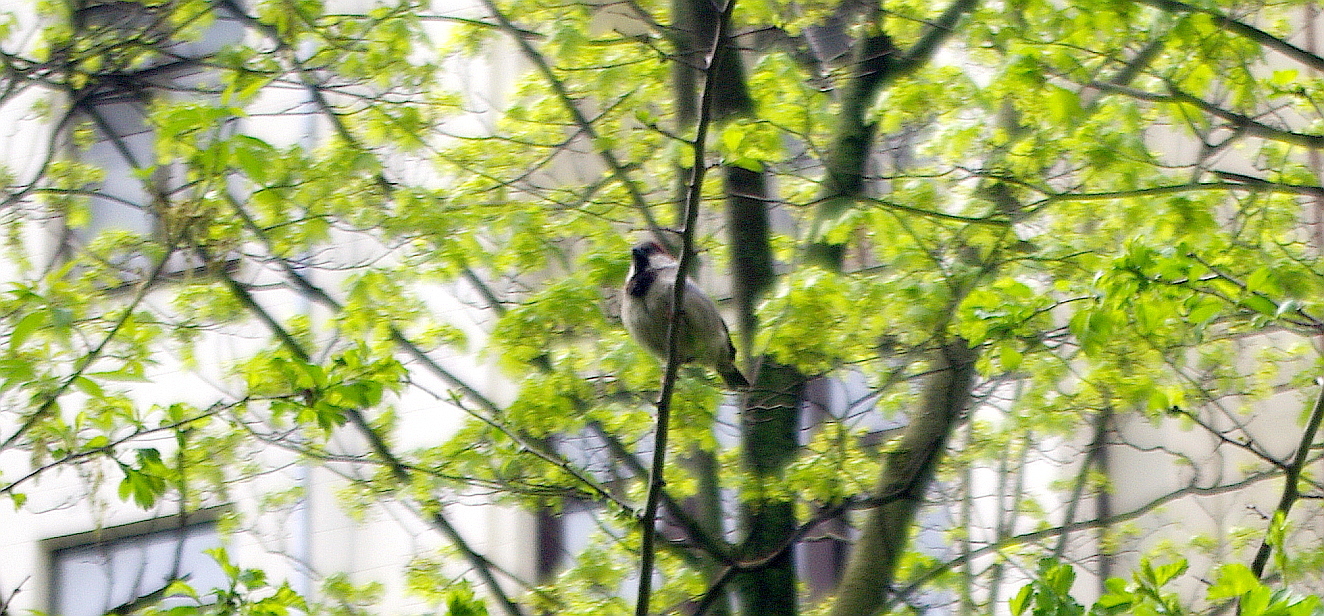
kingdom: Animalia
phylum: Chordata
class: Aves
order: Passeriformes
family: Passeridae
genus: Passer
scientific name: Passer domesticus
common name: House sparrow
